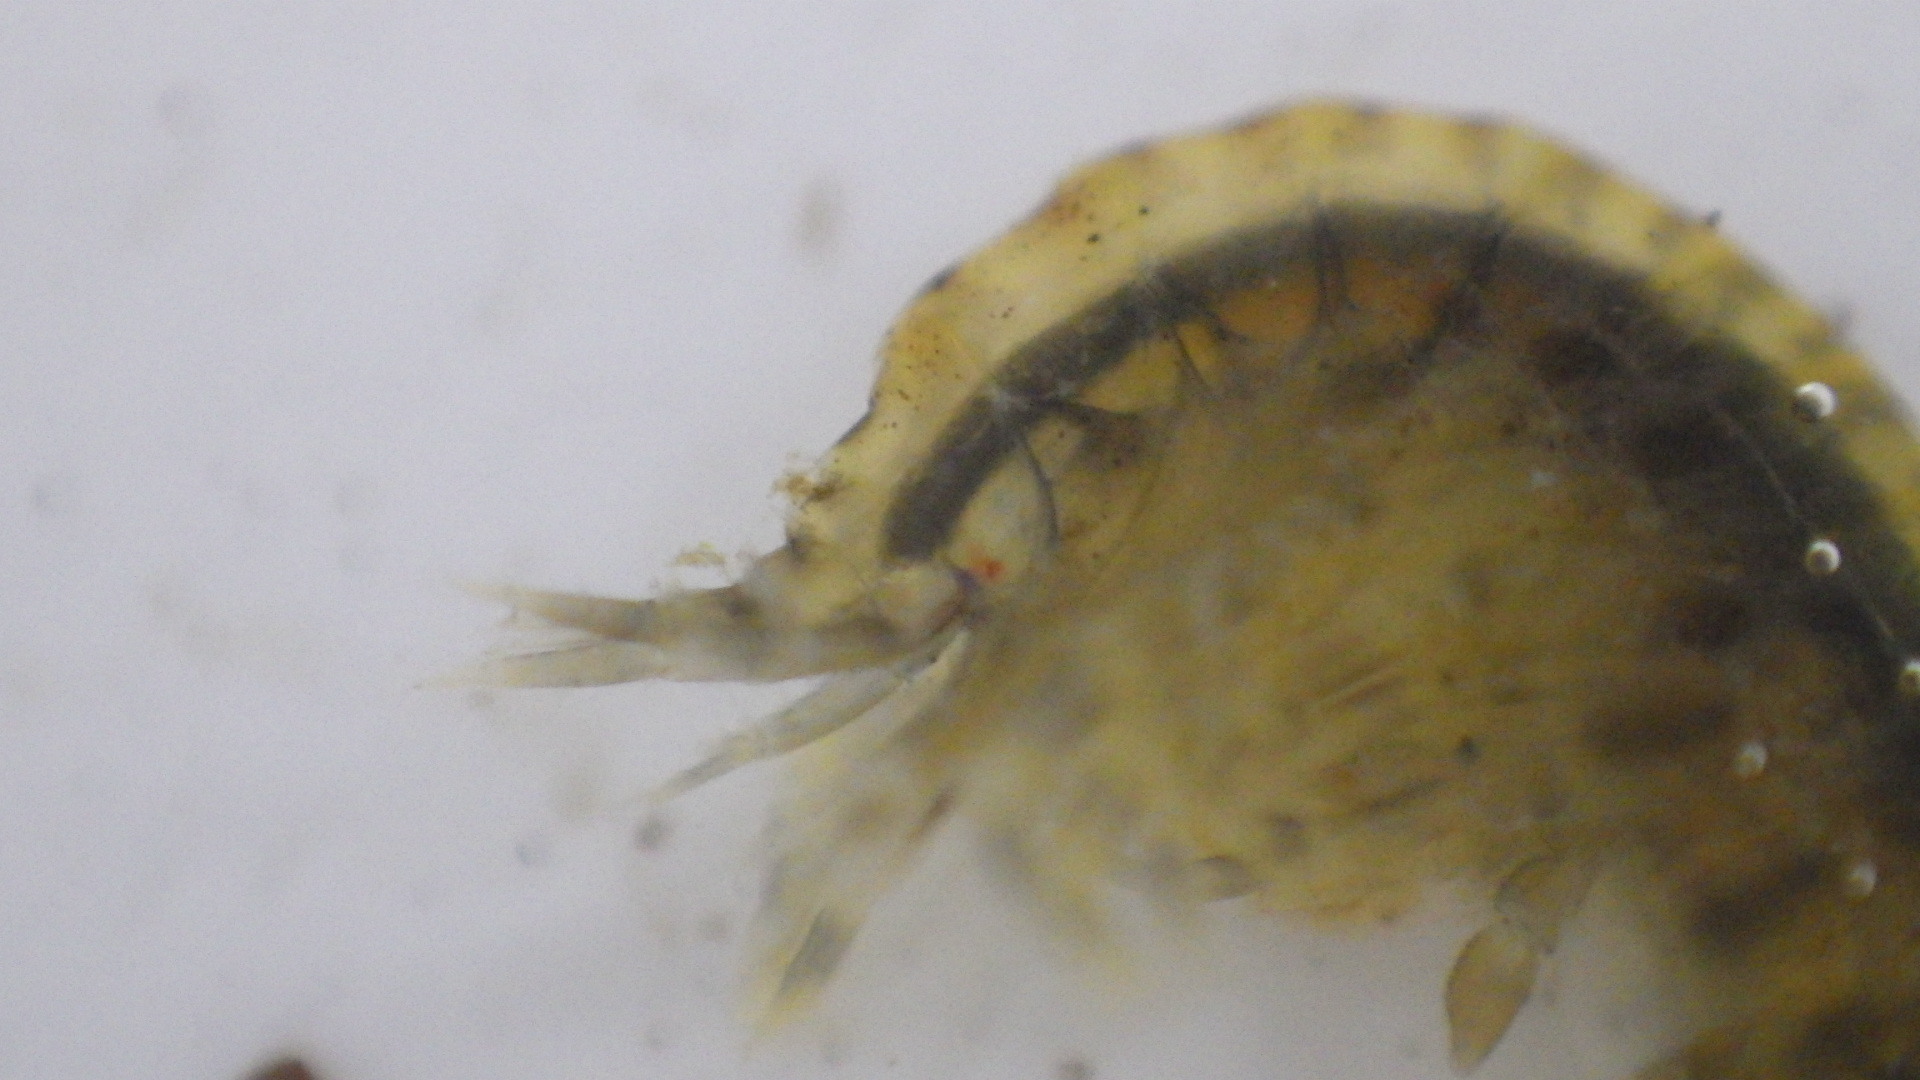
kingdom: Animalia
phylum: Arthropoda
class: Malacostraca
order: Amphipoda
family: Gammaridae
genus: Gammarus
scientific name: Gammarus fasciatus
